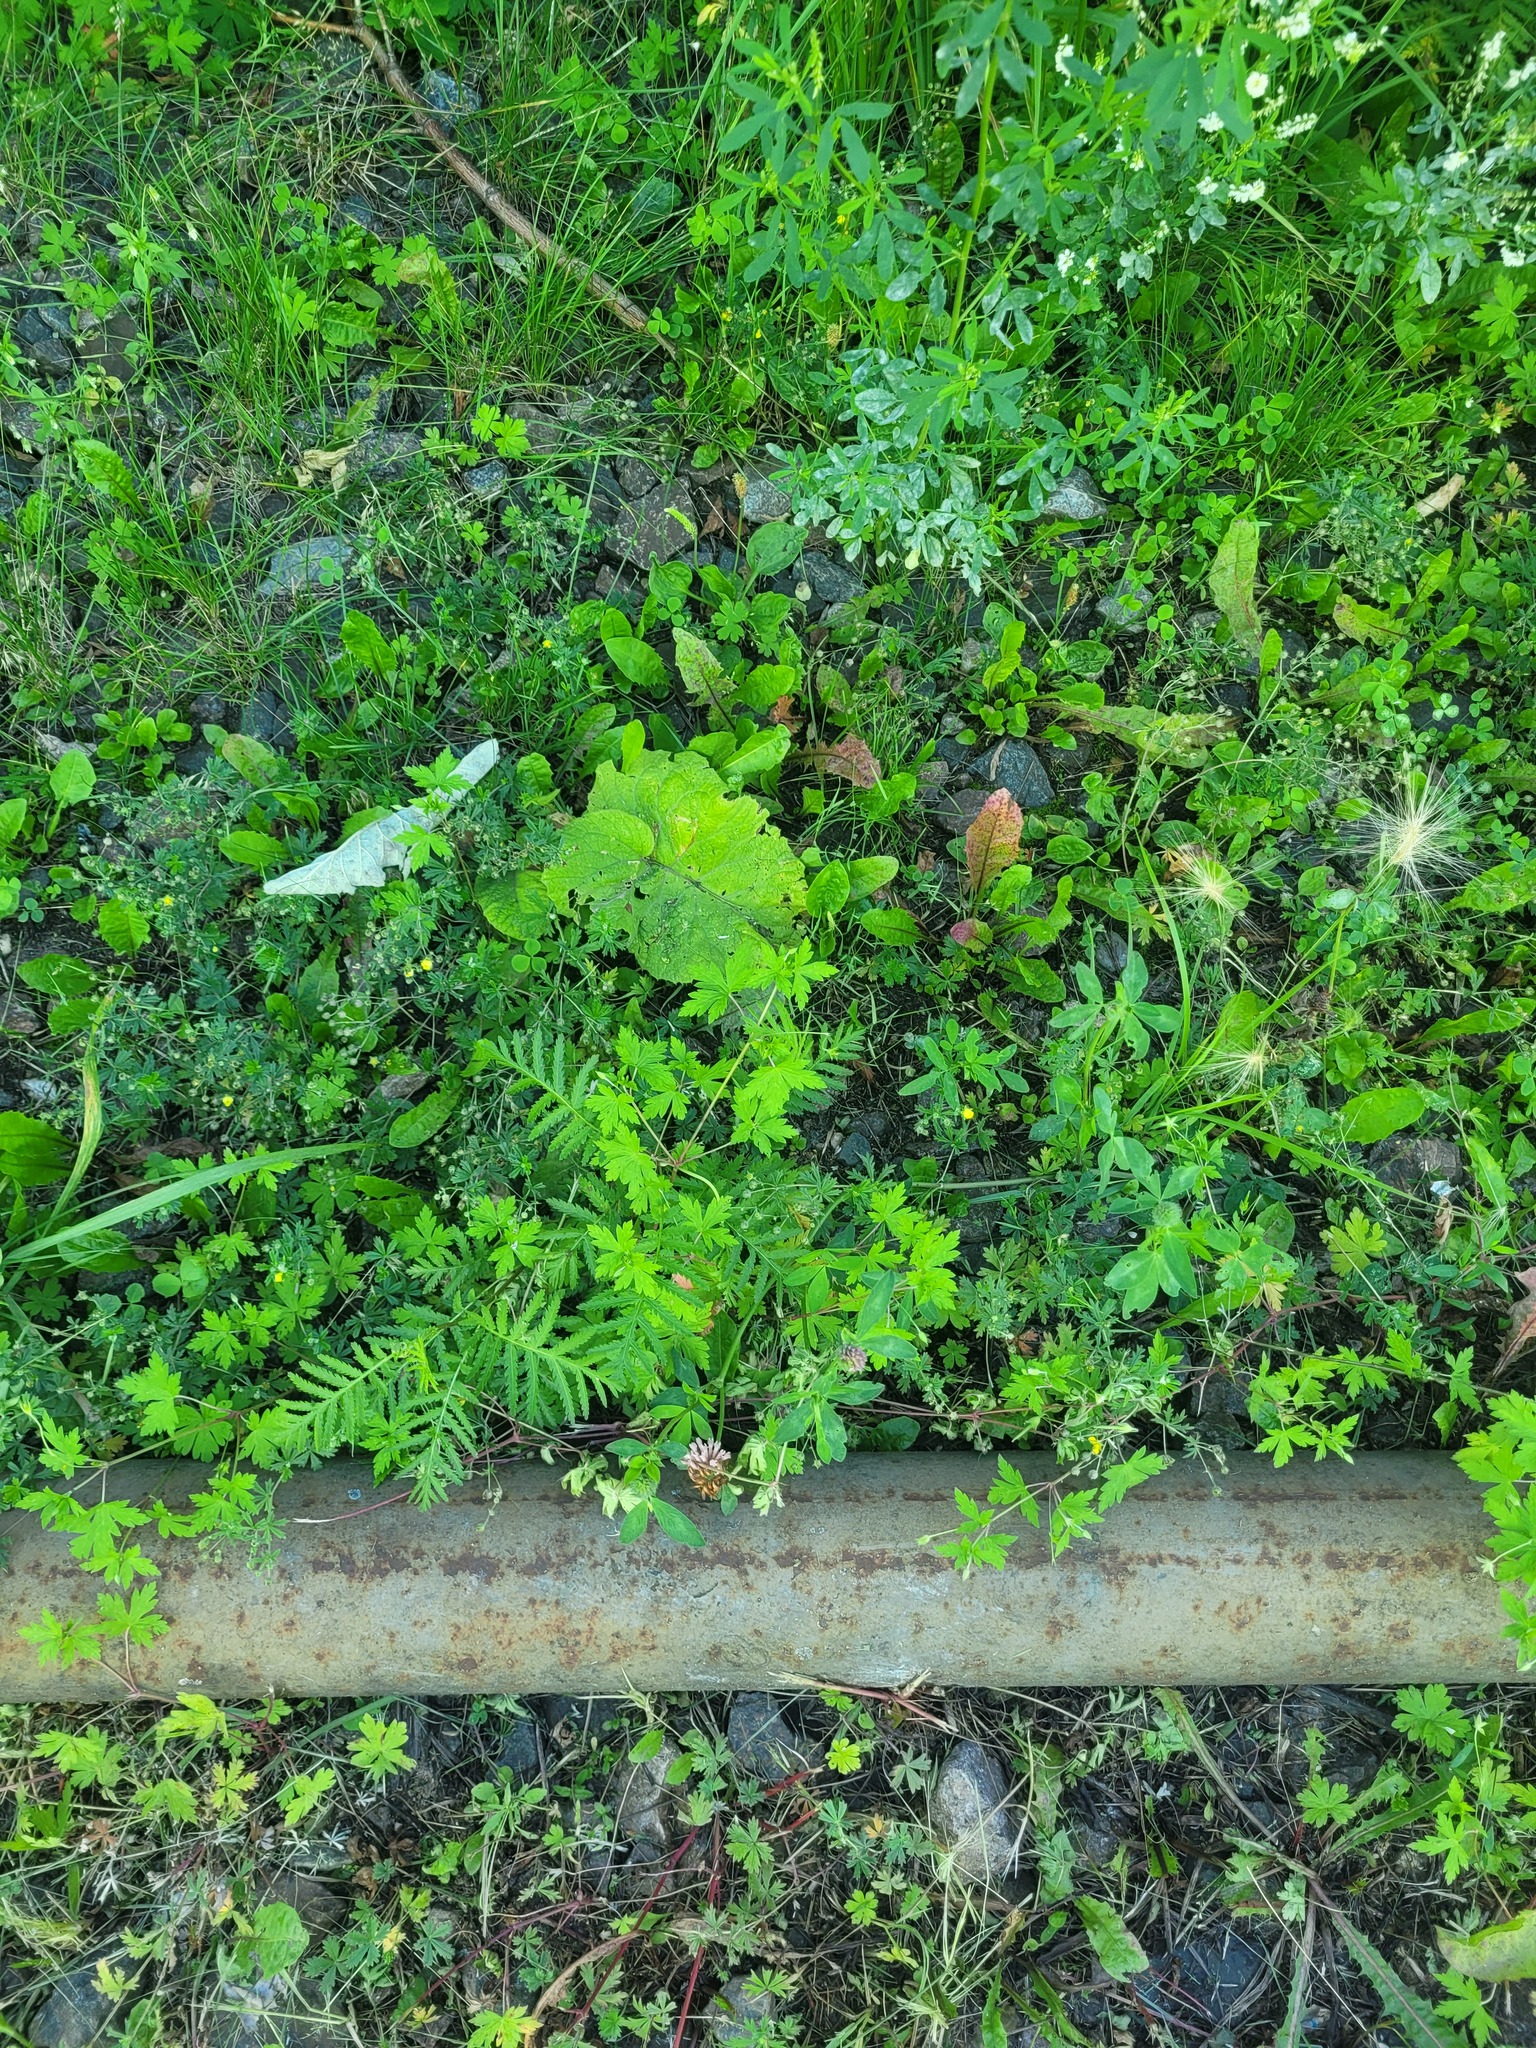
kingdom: Plantae
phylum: Tracheophyta
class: Magnoliopsida
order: Geraniales
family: Geraniaceae
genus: Geranium
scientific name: Geranium sibiricum
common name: Siberian crane's-bill
